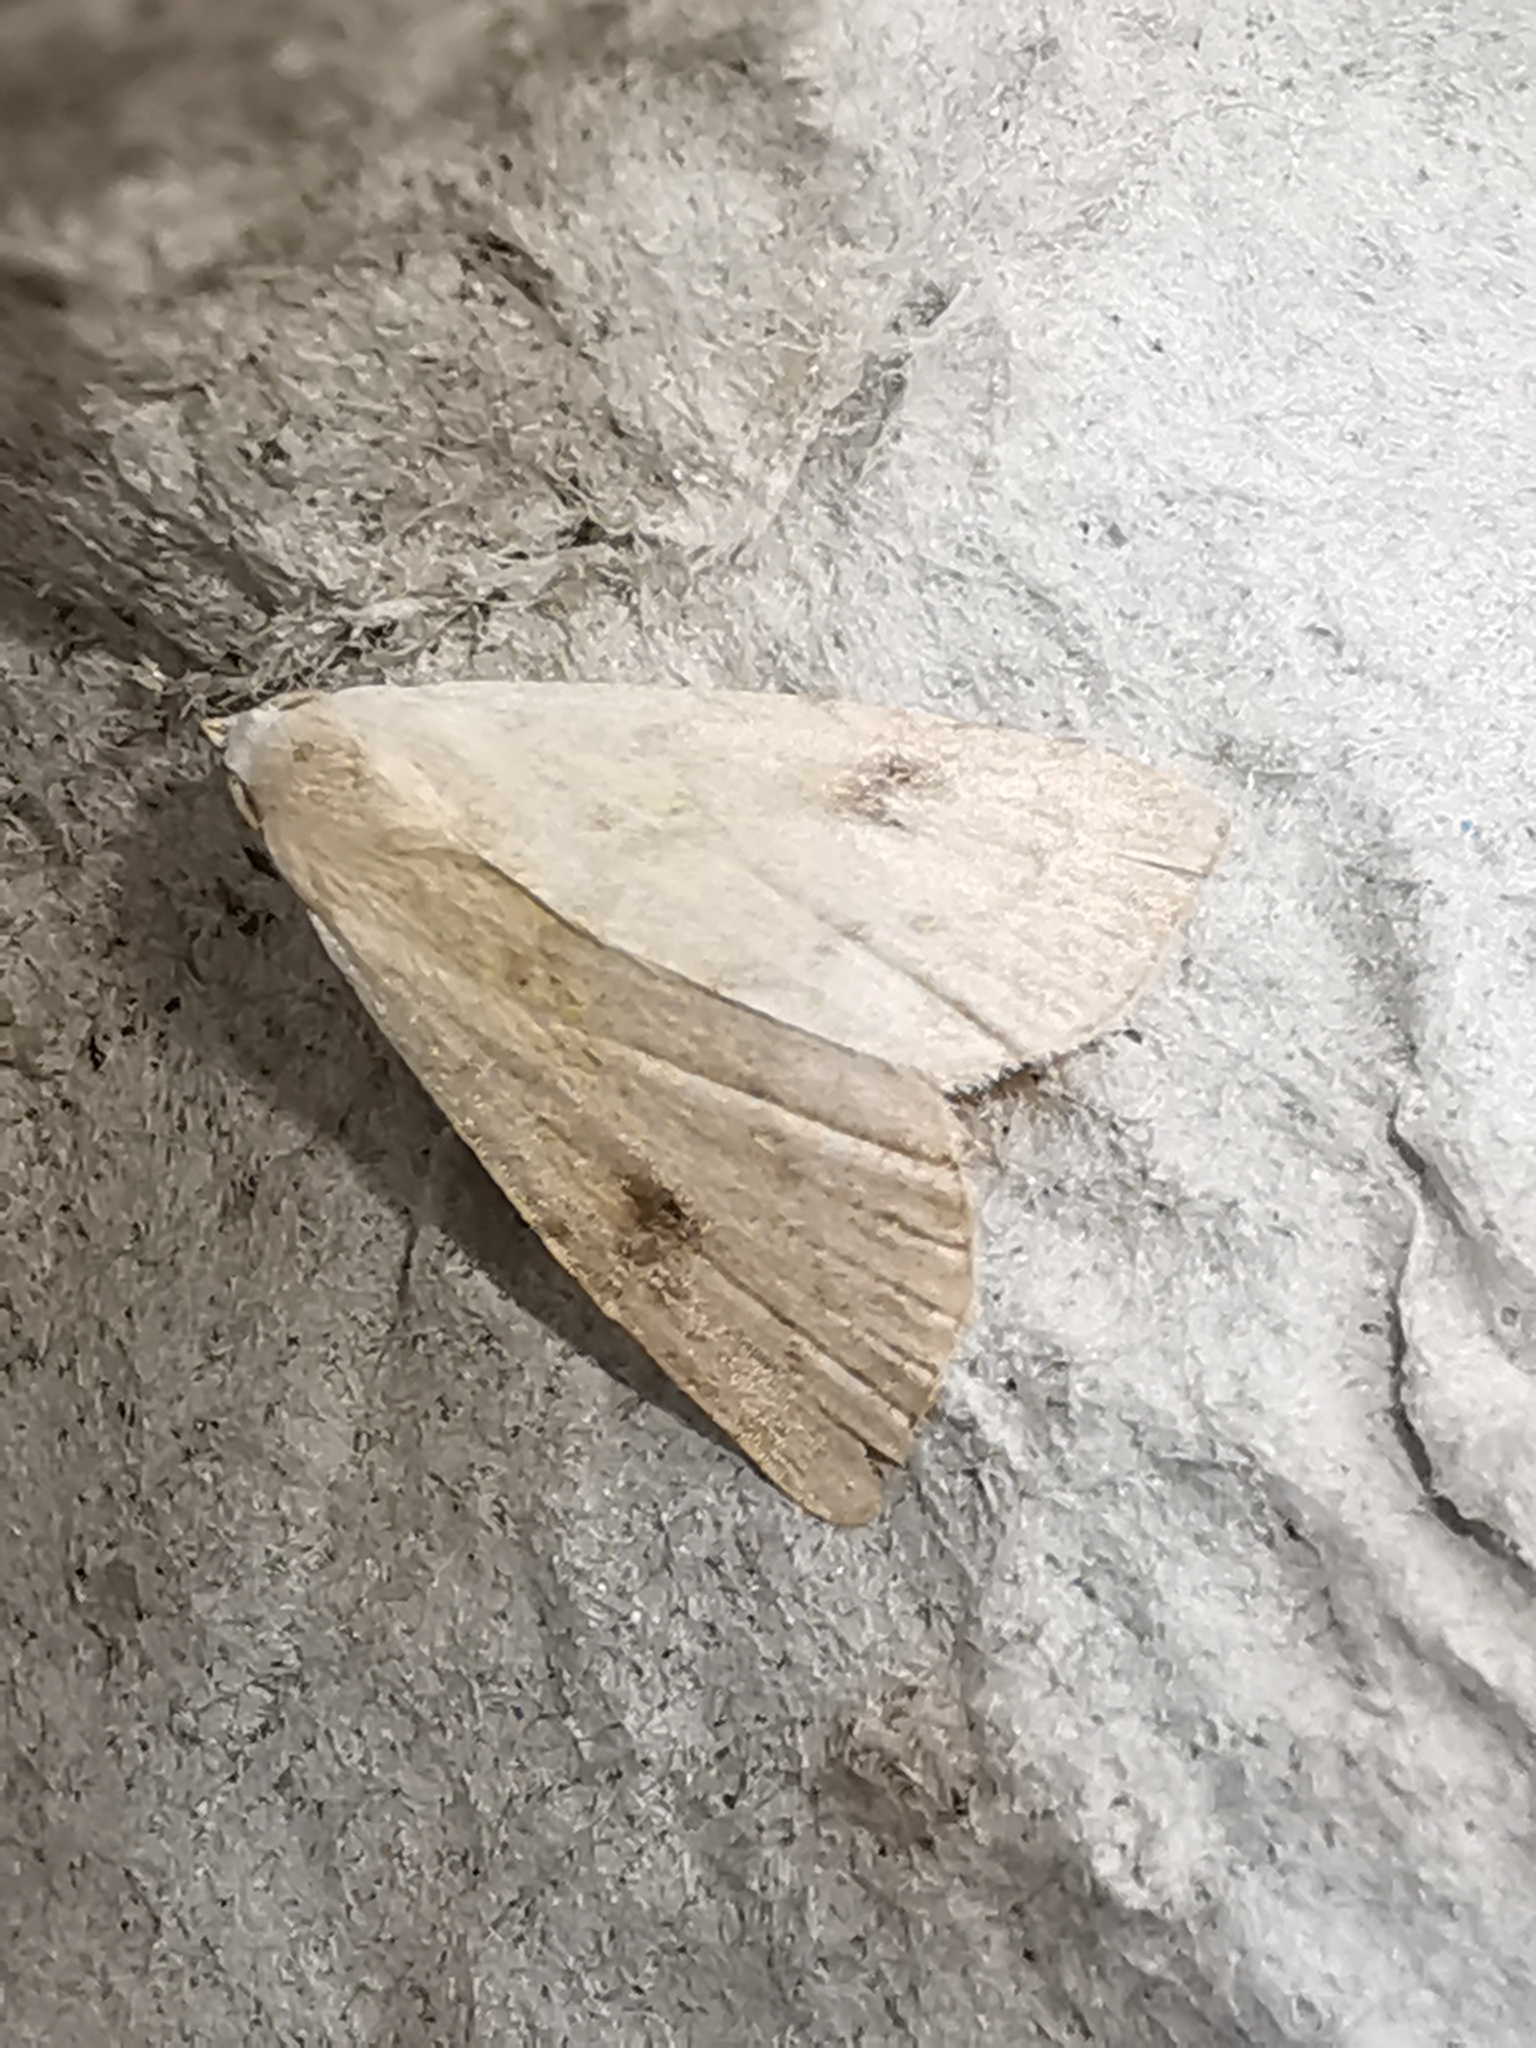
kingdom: Animalia
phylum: Arthropoda
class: Insecta
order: Lepidoptera
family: Erebidae
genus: Rivula
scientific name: Rivula sericealis
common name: Straw dot
